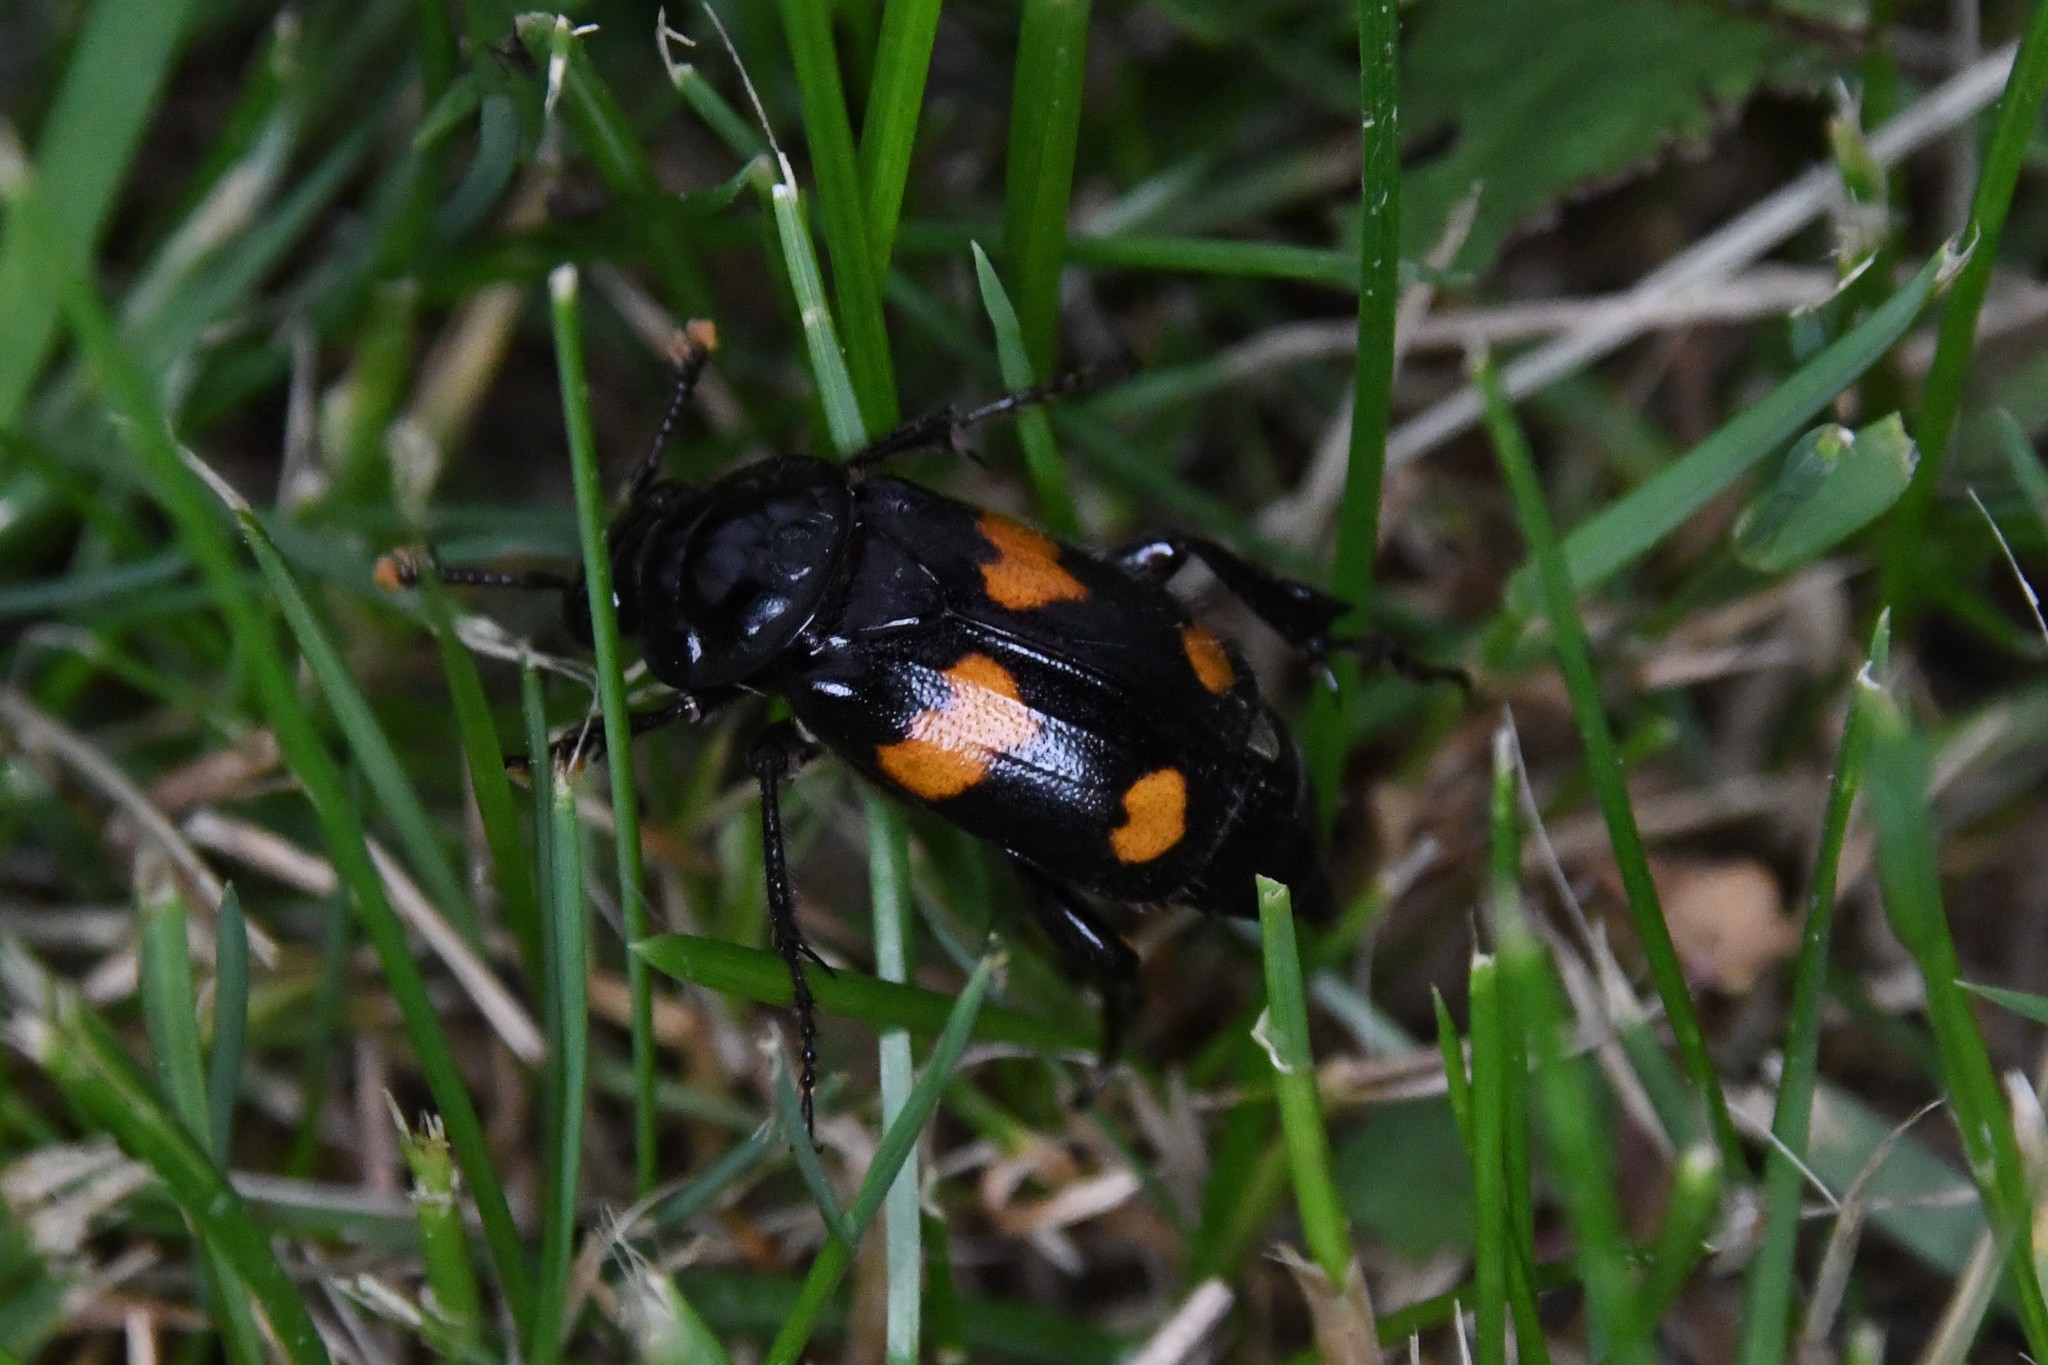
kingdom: Animalia
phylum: Arthropoda
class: Insecta
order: Coleoptera
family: Staphylinidae
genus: Nicrophorus
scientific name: Nicrophorus orbicollis
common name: Roundneck sexton beetle
